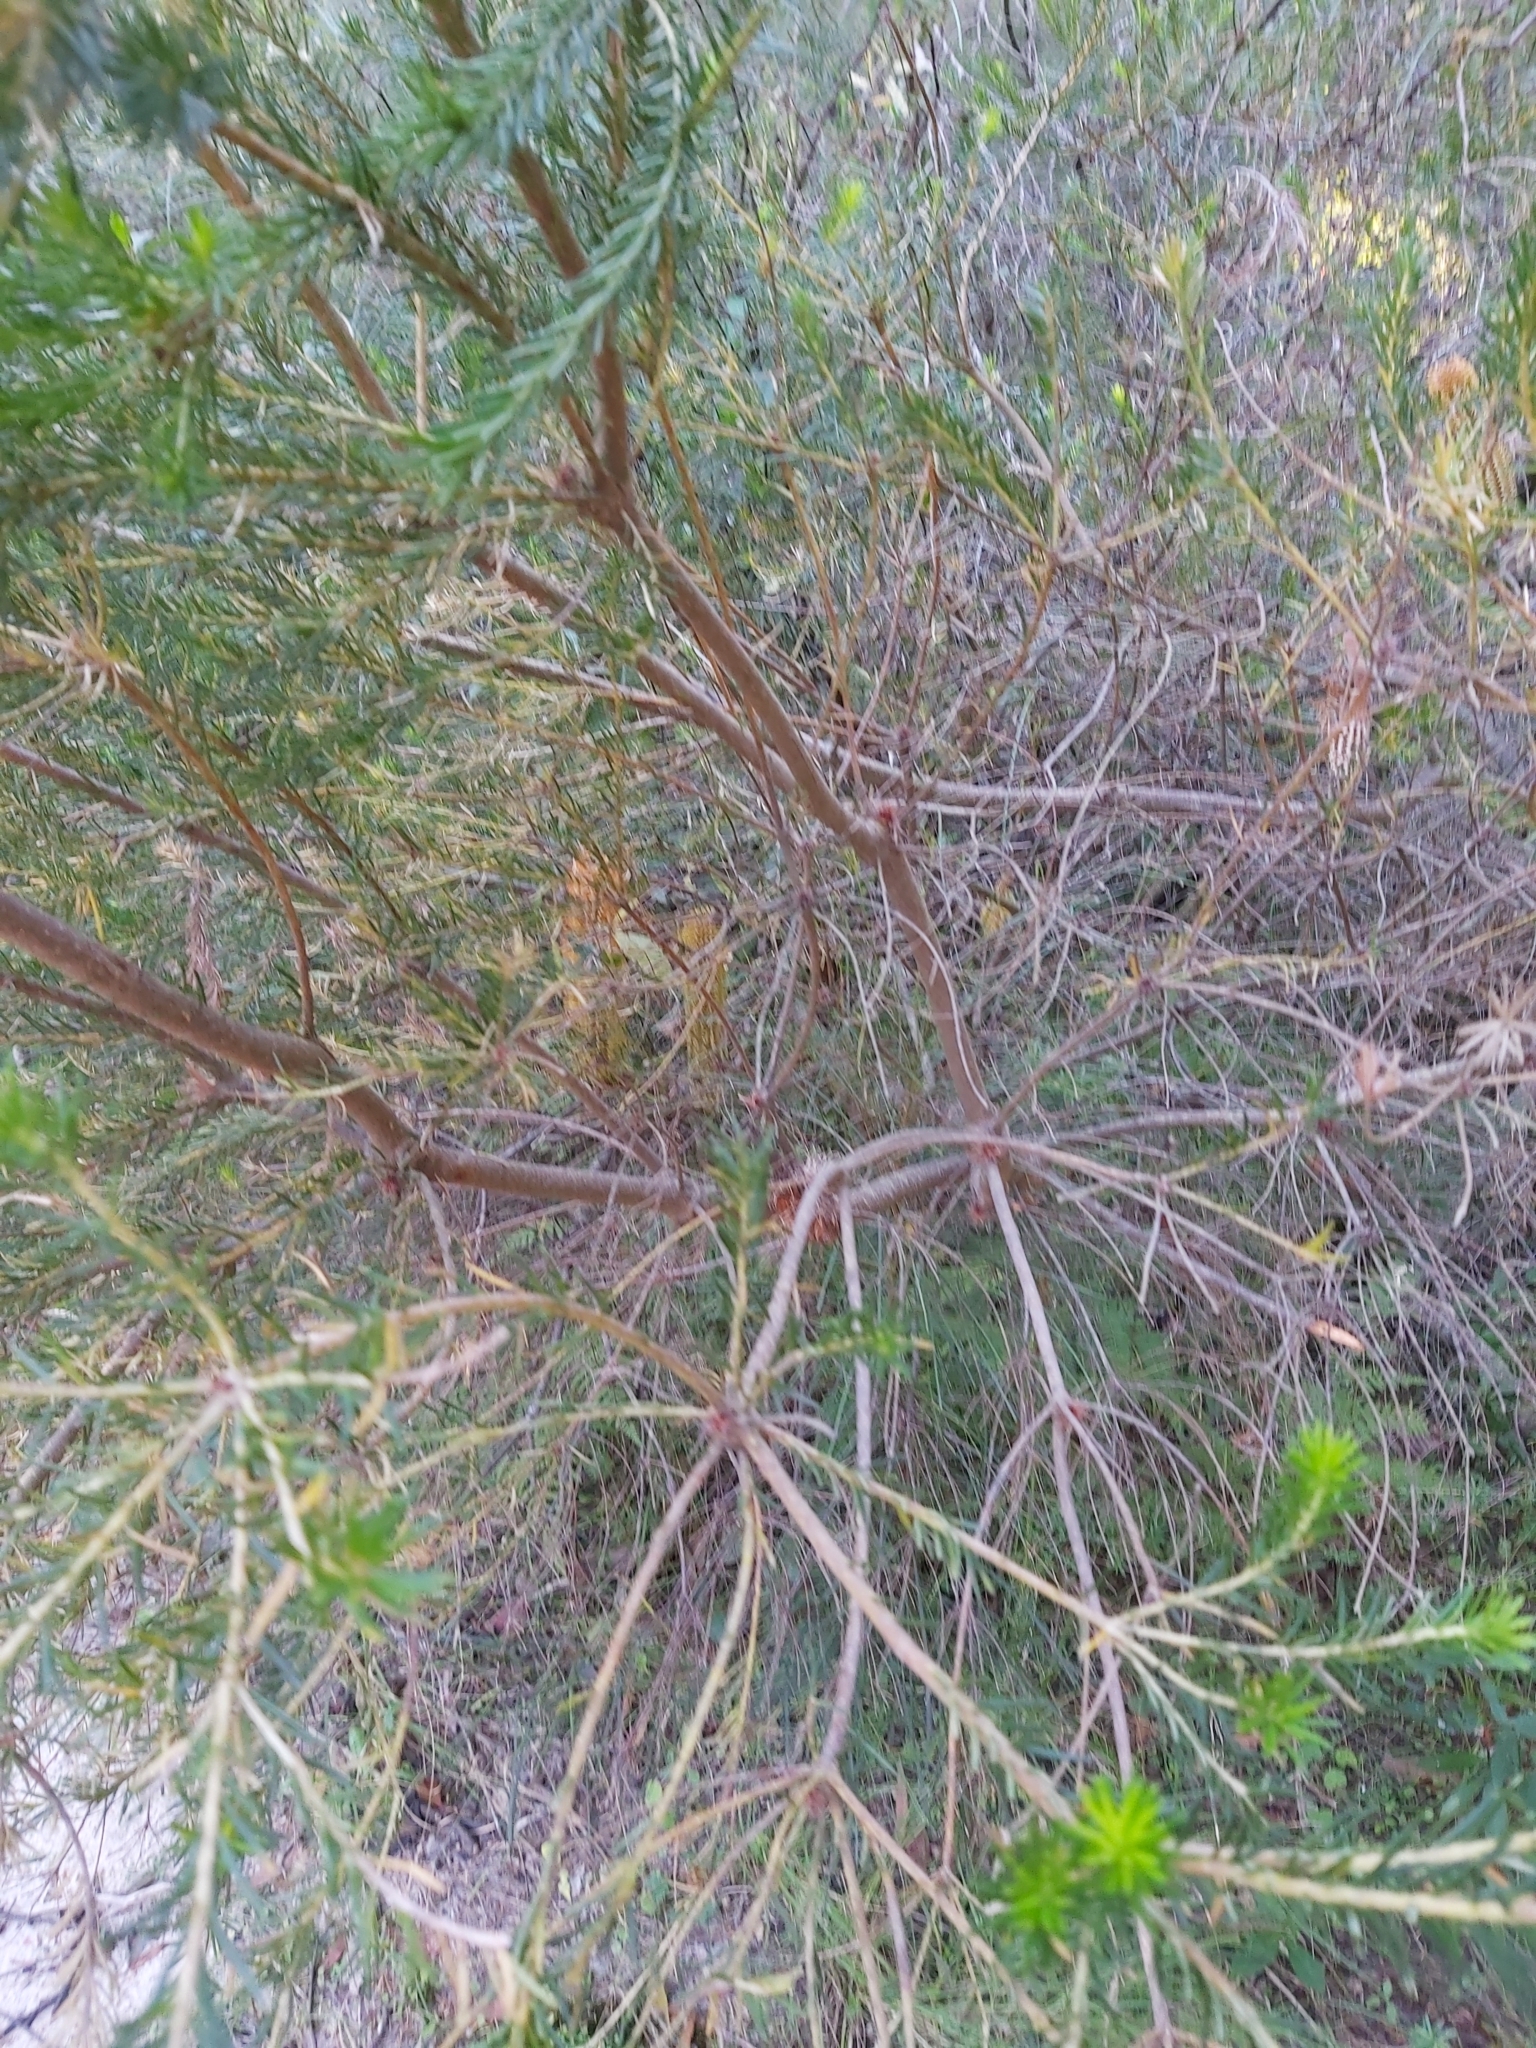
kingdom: Plantae
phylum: Tracheophyta
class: Magnoliopsida
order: Proteales
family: Proteaceae
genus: Banksia
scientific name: Banksia ericifolia
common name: Heath-leaf banksia
